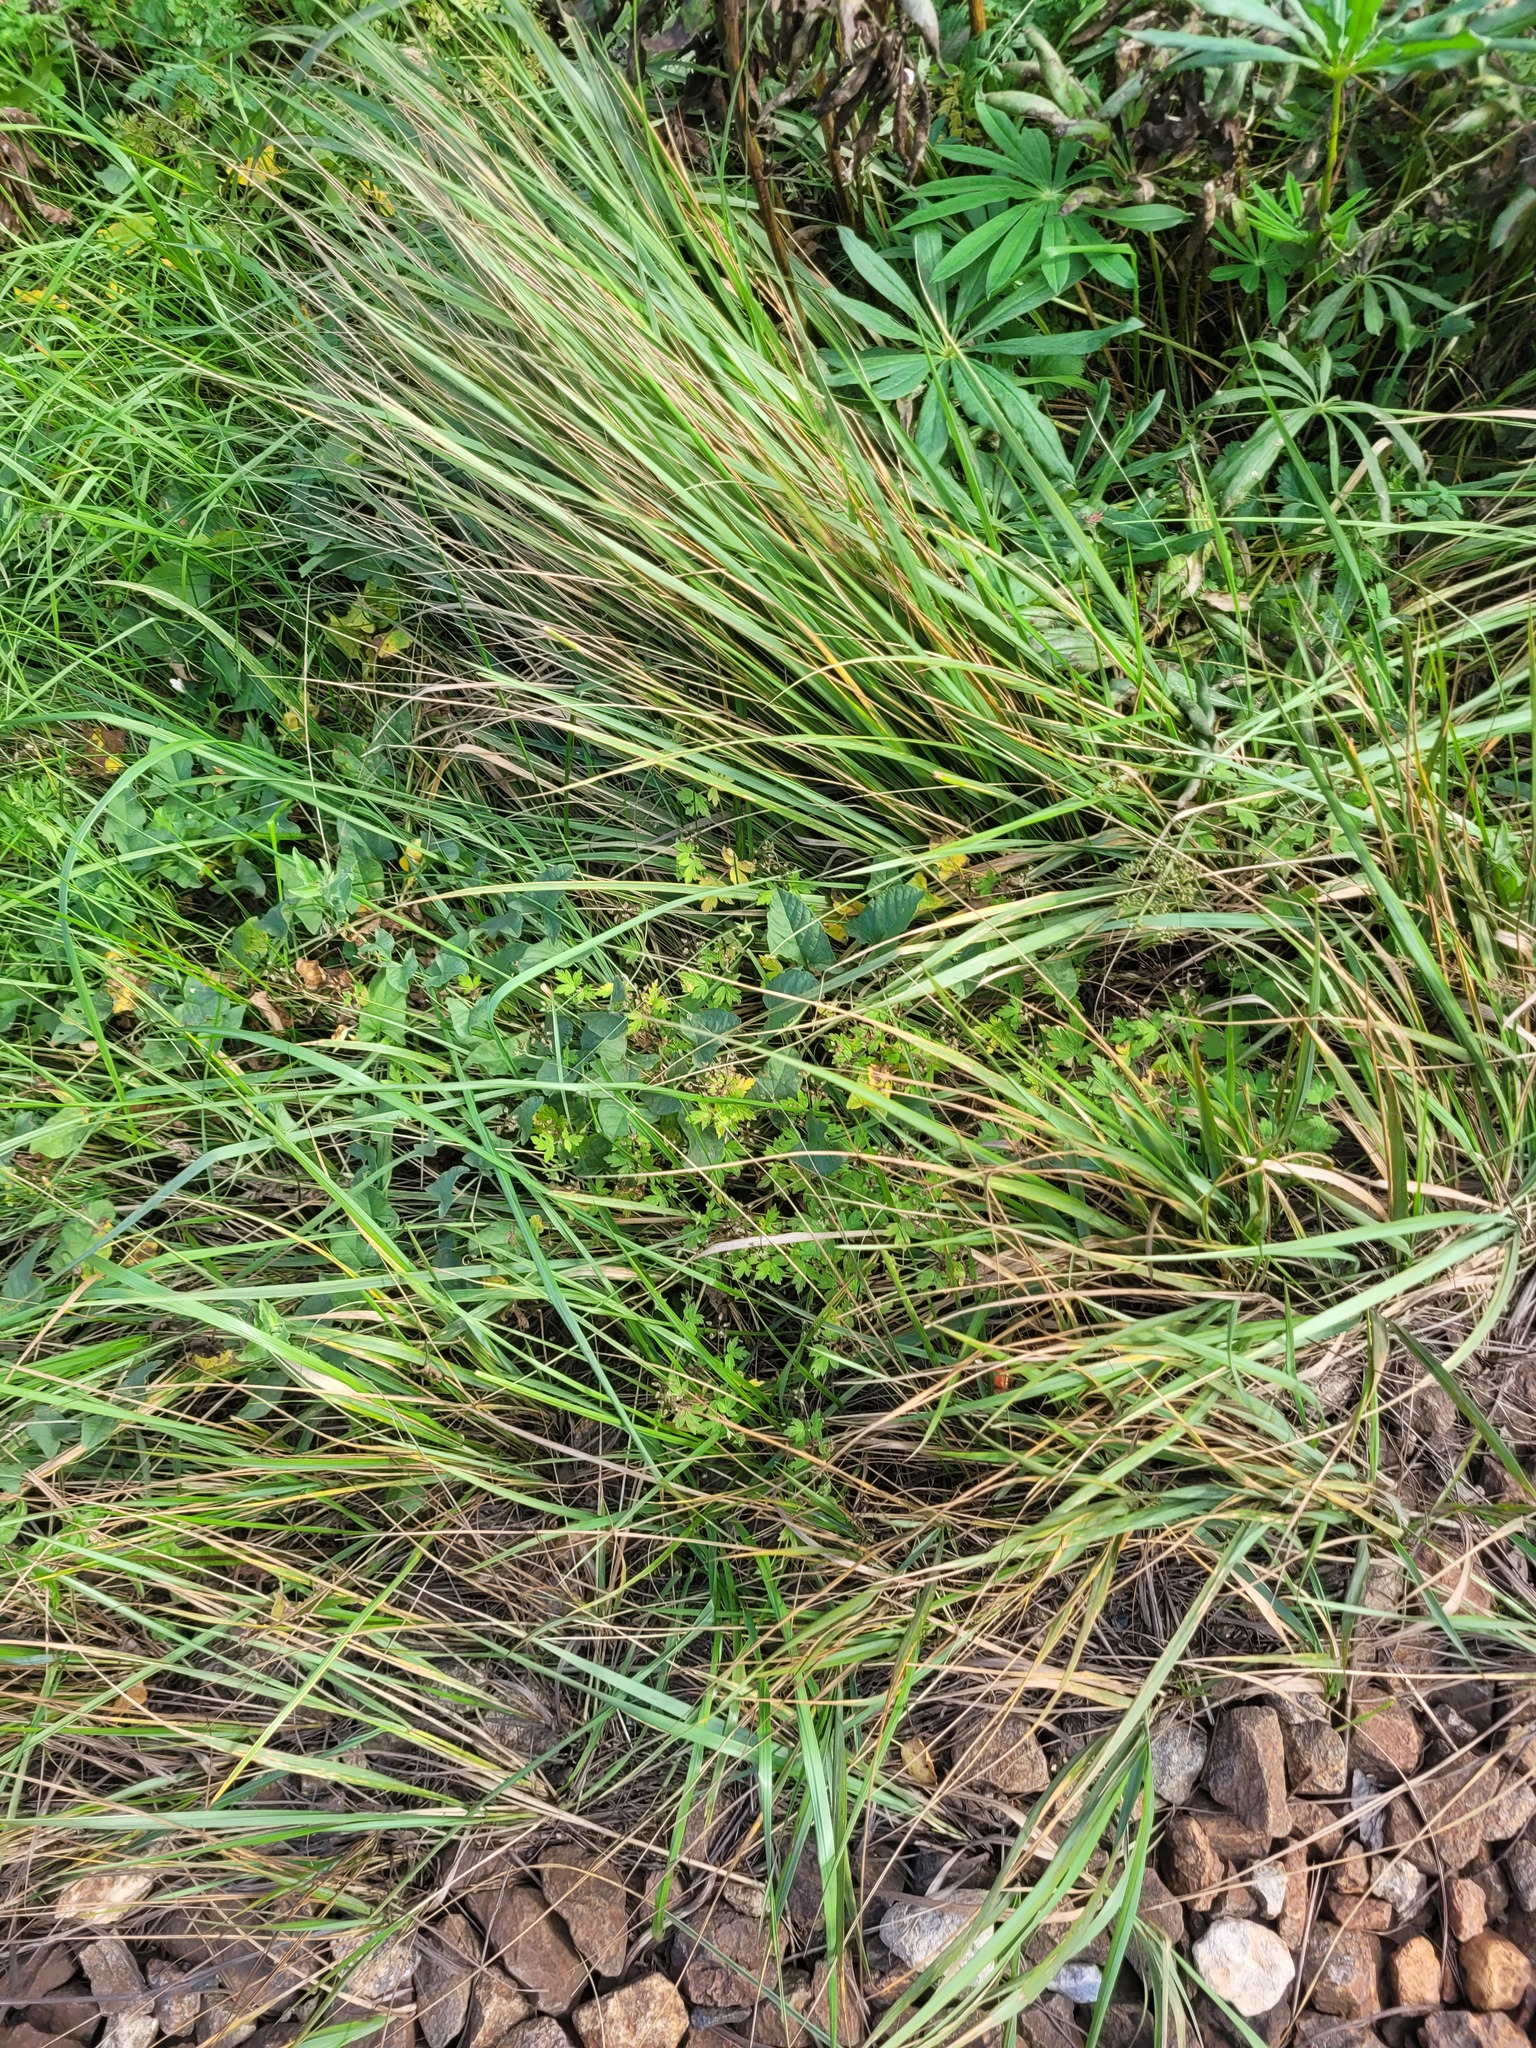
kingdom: Plantae
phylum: Tracheophyta
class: Magnoliopsida
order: Geraniales
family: Geraniaceae
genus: Geranium
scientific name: Geranium sibiricum
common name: Siberian crane's-bill
